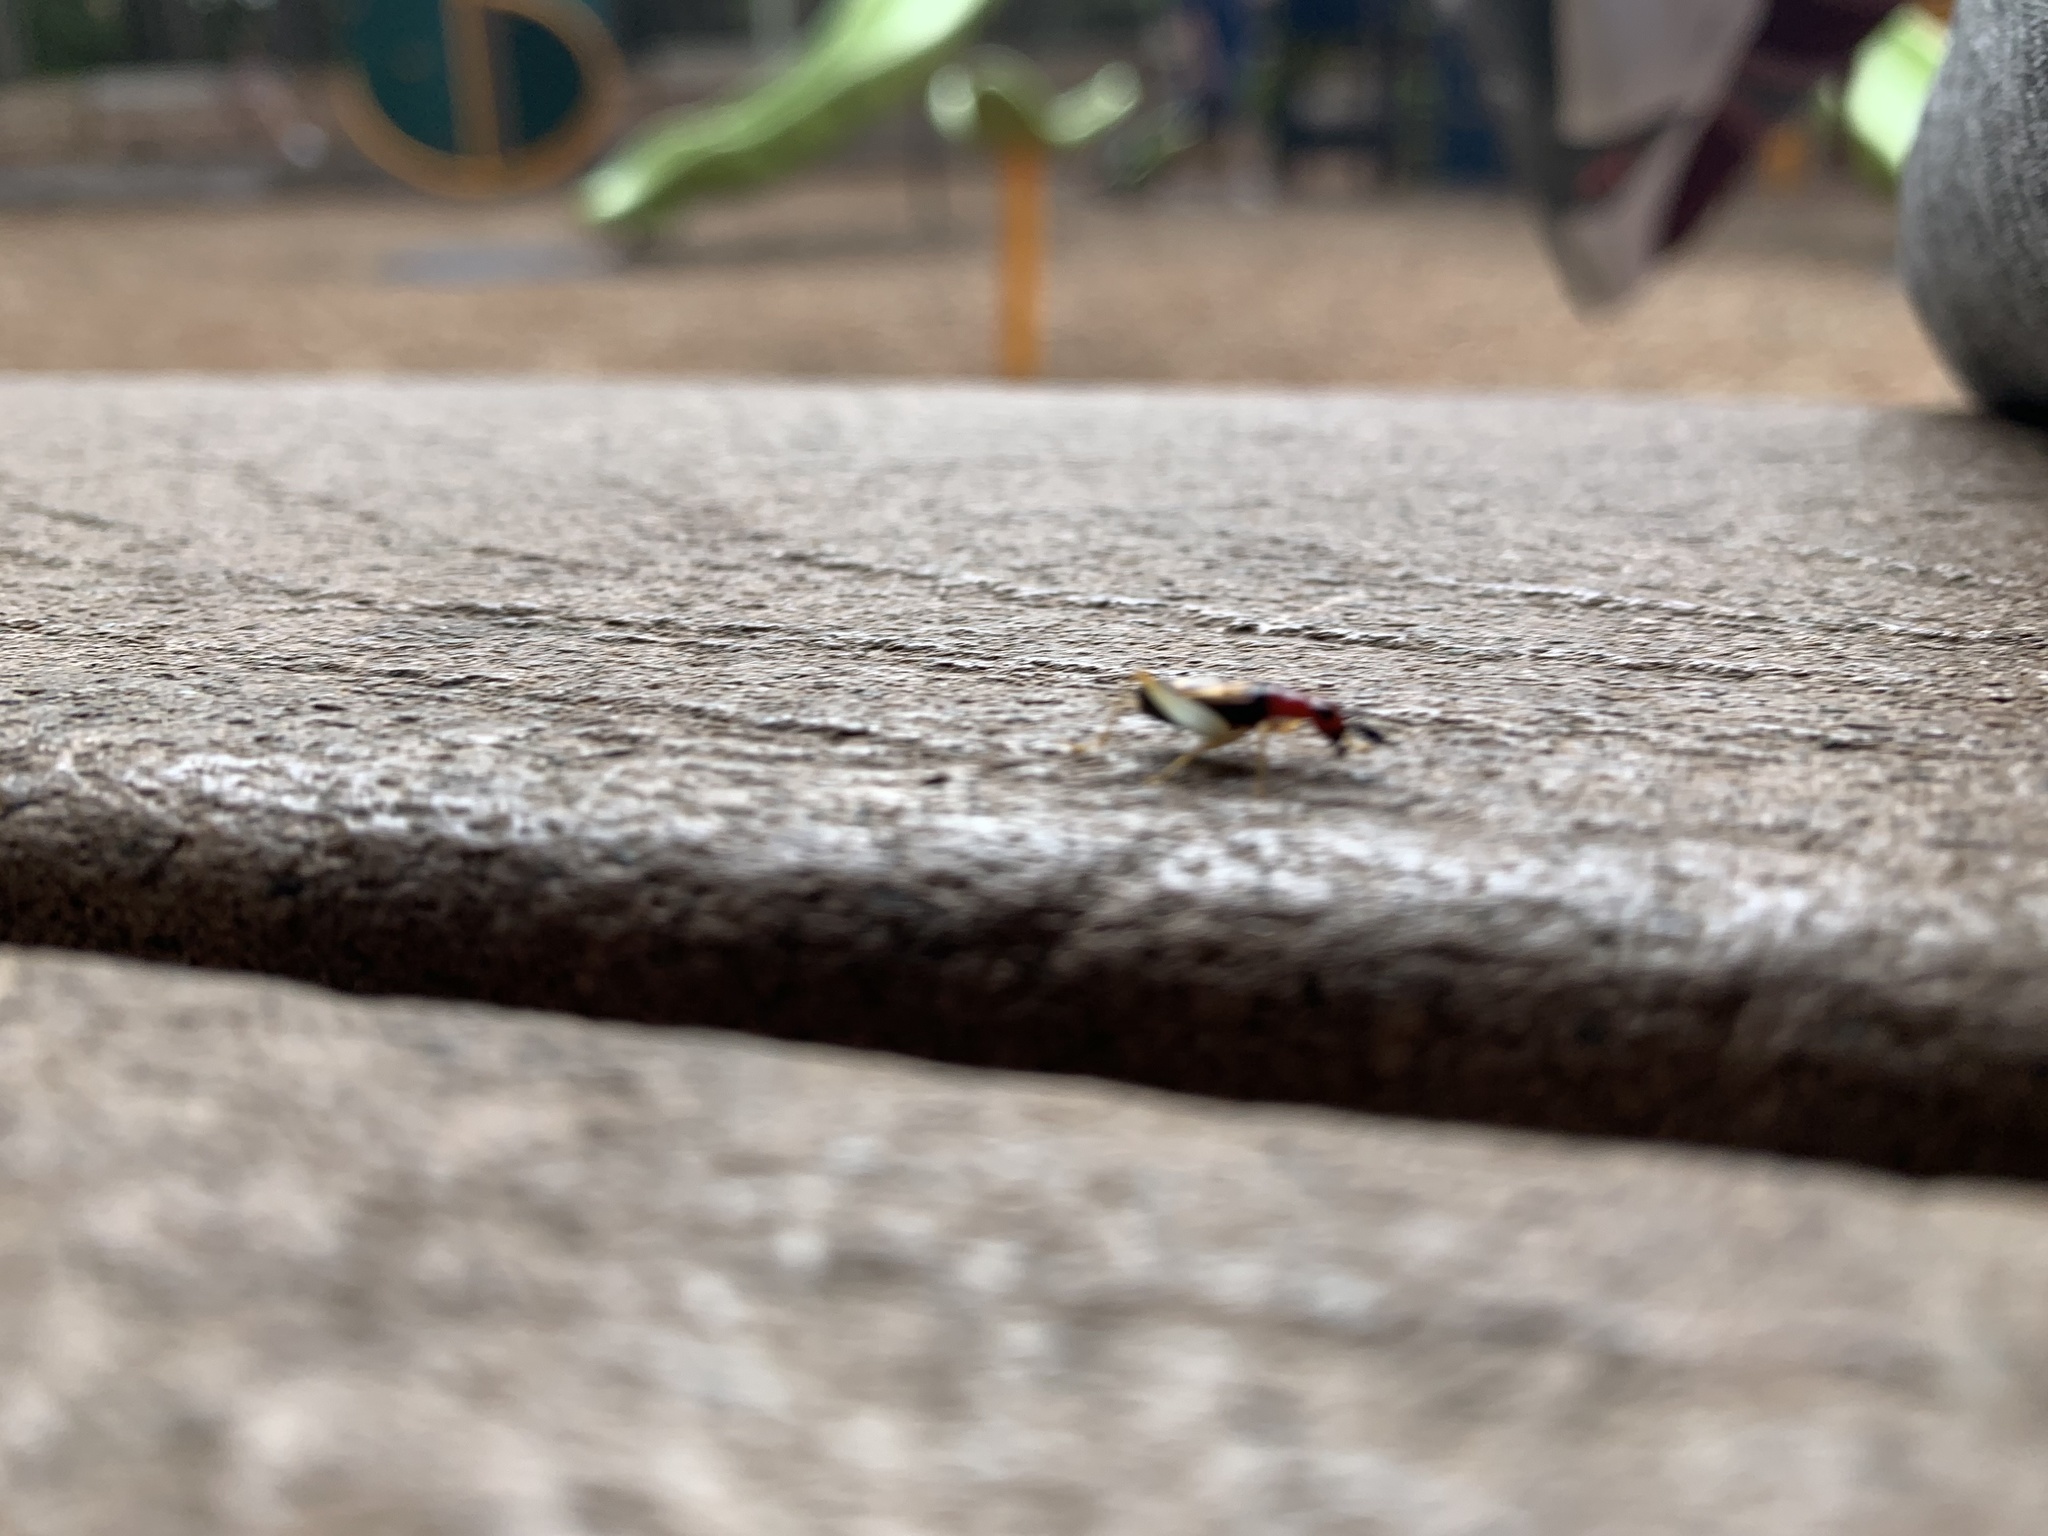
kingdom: Animalia
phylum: Arthropoda
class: Insecta
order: Orthoptera
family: Trigonidiidae
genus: Phyllopalpus
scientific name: Phyllopalpus pulchellus
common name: Handsome trig
